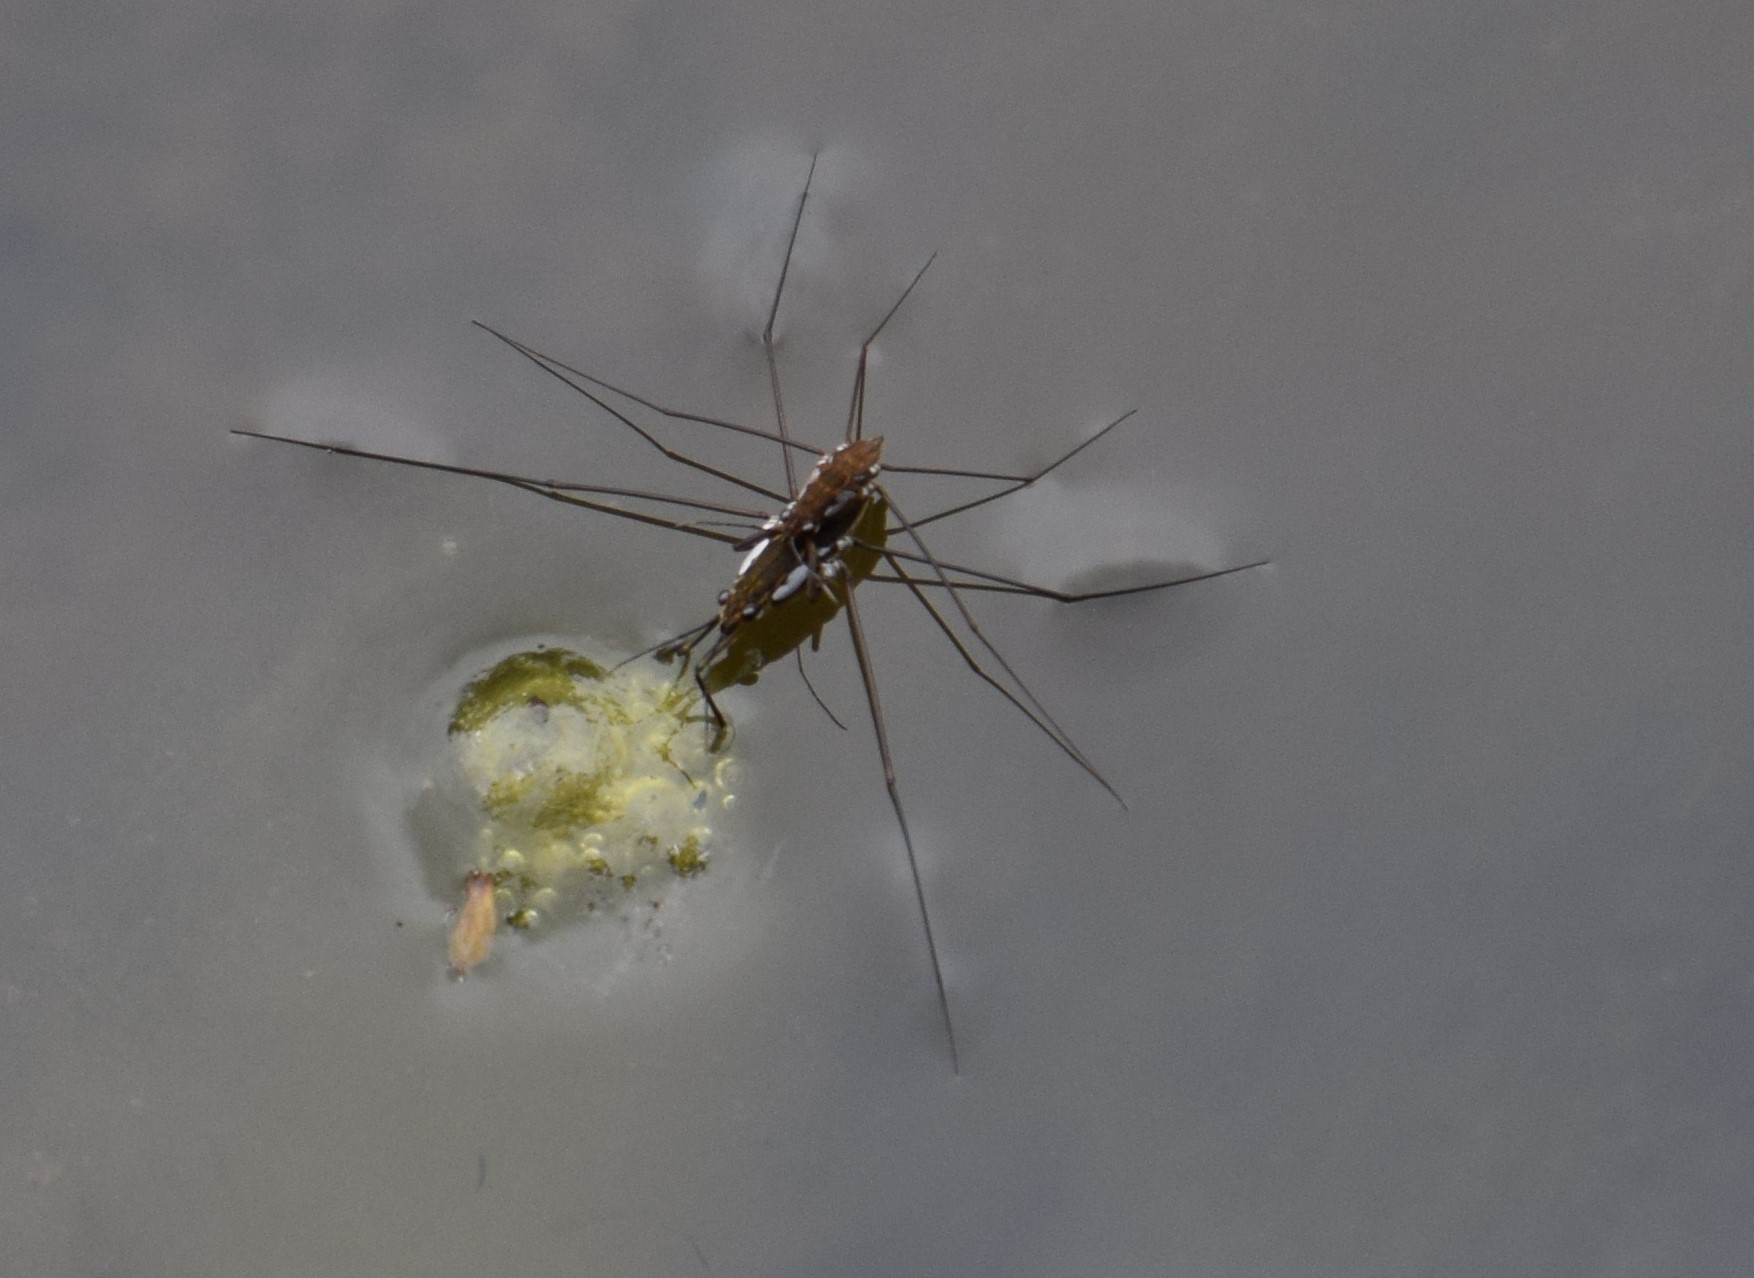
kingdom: Animalia
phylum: Arthropoda
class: Insecta
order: Hemiptera
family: Gerridae
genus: Tenagogerris
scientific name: Tenagogerris euphrosyne
